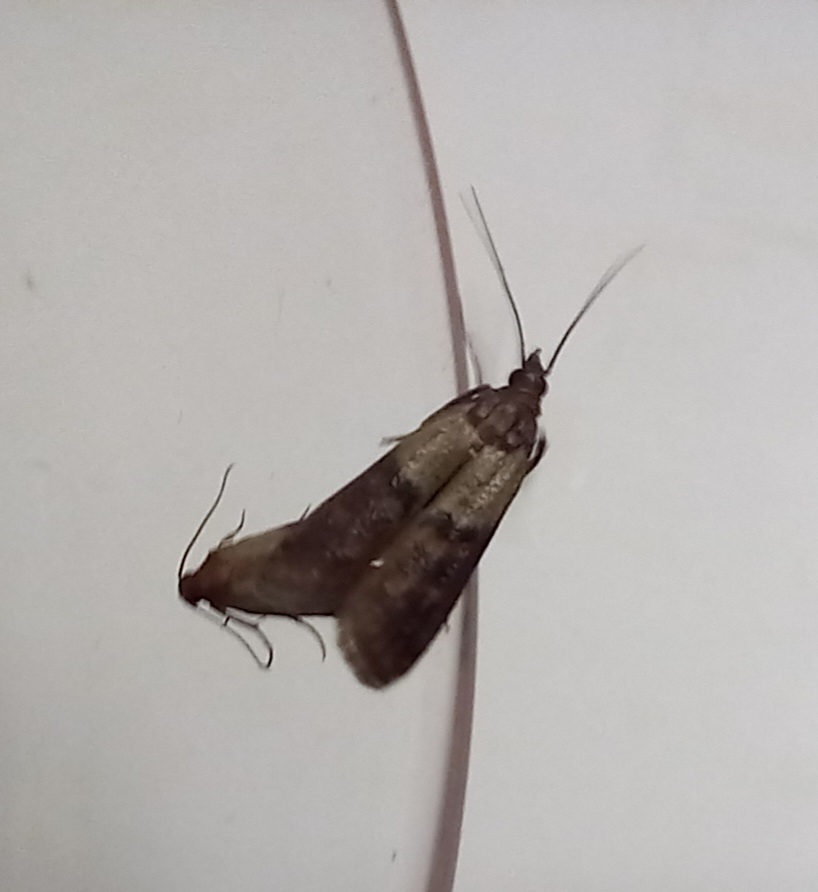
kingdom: Animalia
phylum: Arthropoda
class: Insecta
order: Lepidoptera
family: Pyralidae
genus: Plodia
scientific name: Plodia interpunctella
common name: Indian meal moth
